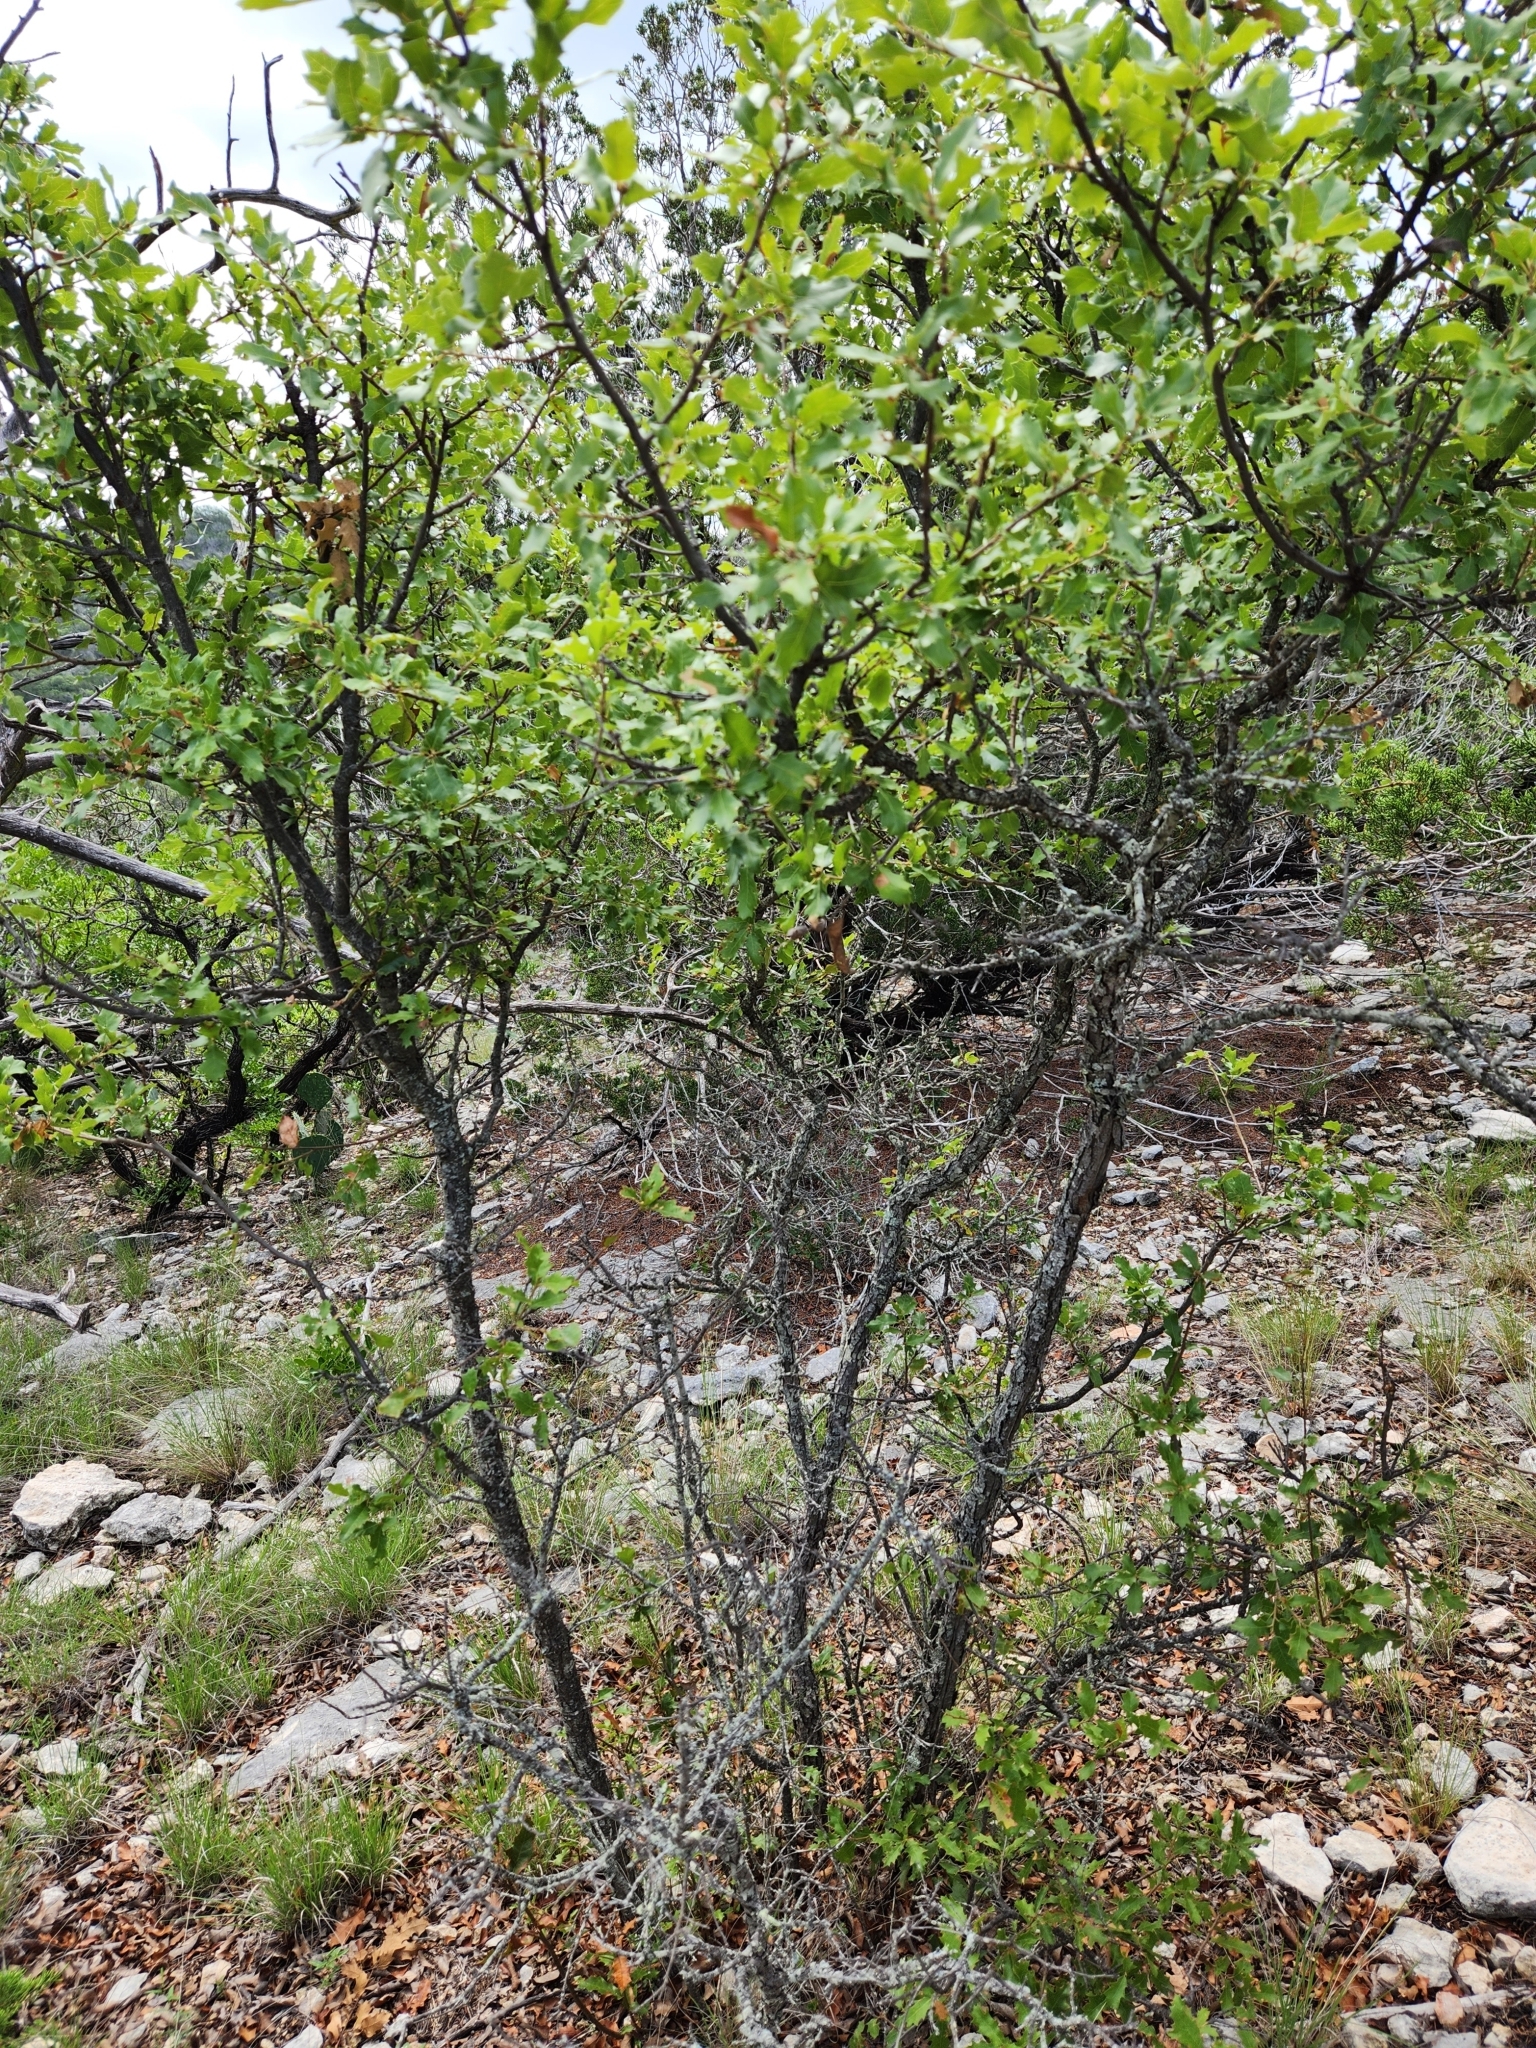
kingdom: Plantae
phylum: Tracheophyta
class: Magnoliopsida
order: Fagales
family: Fagaceae
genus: Quercus
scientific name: Quercus vaseyana
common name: Sandpaper oak
